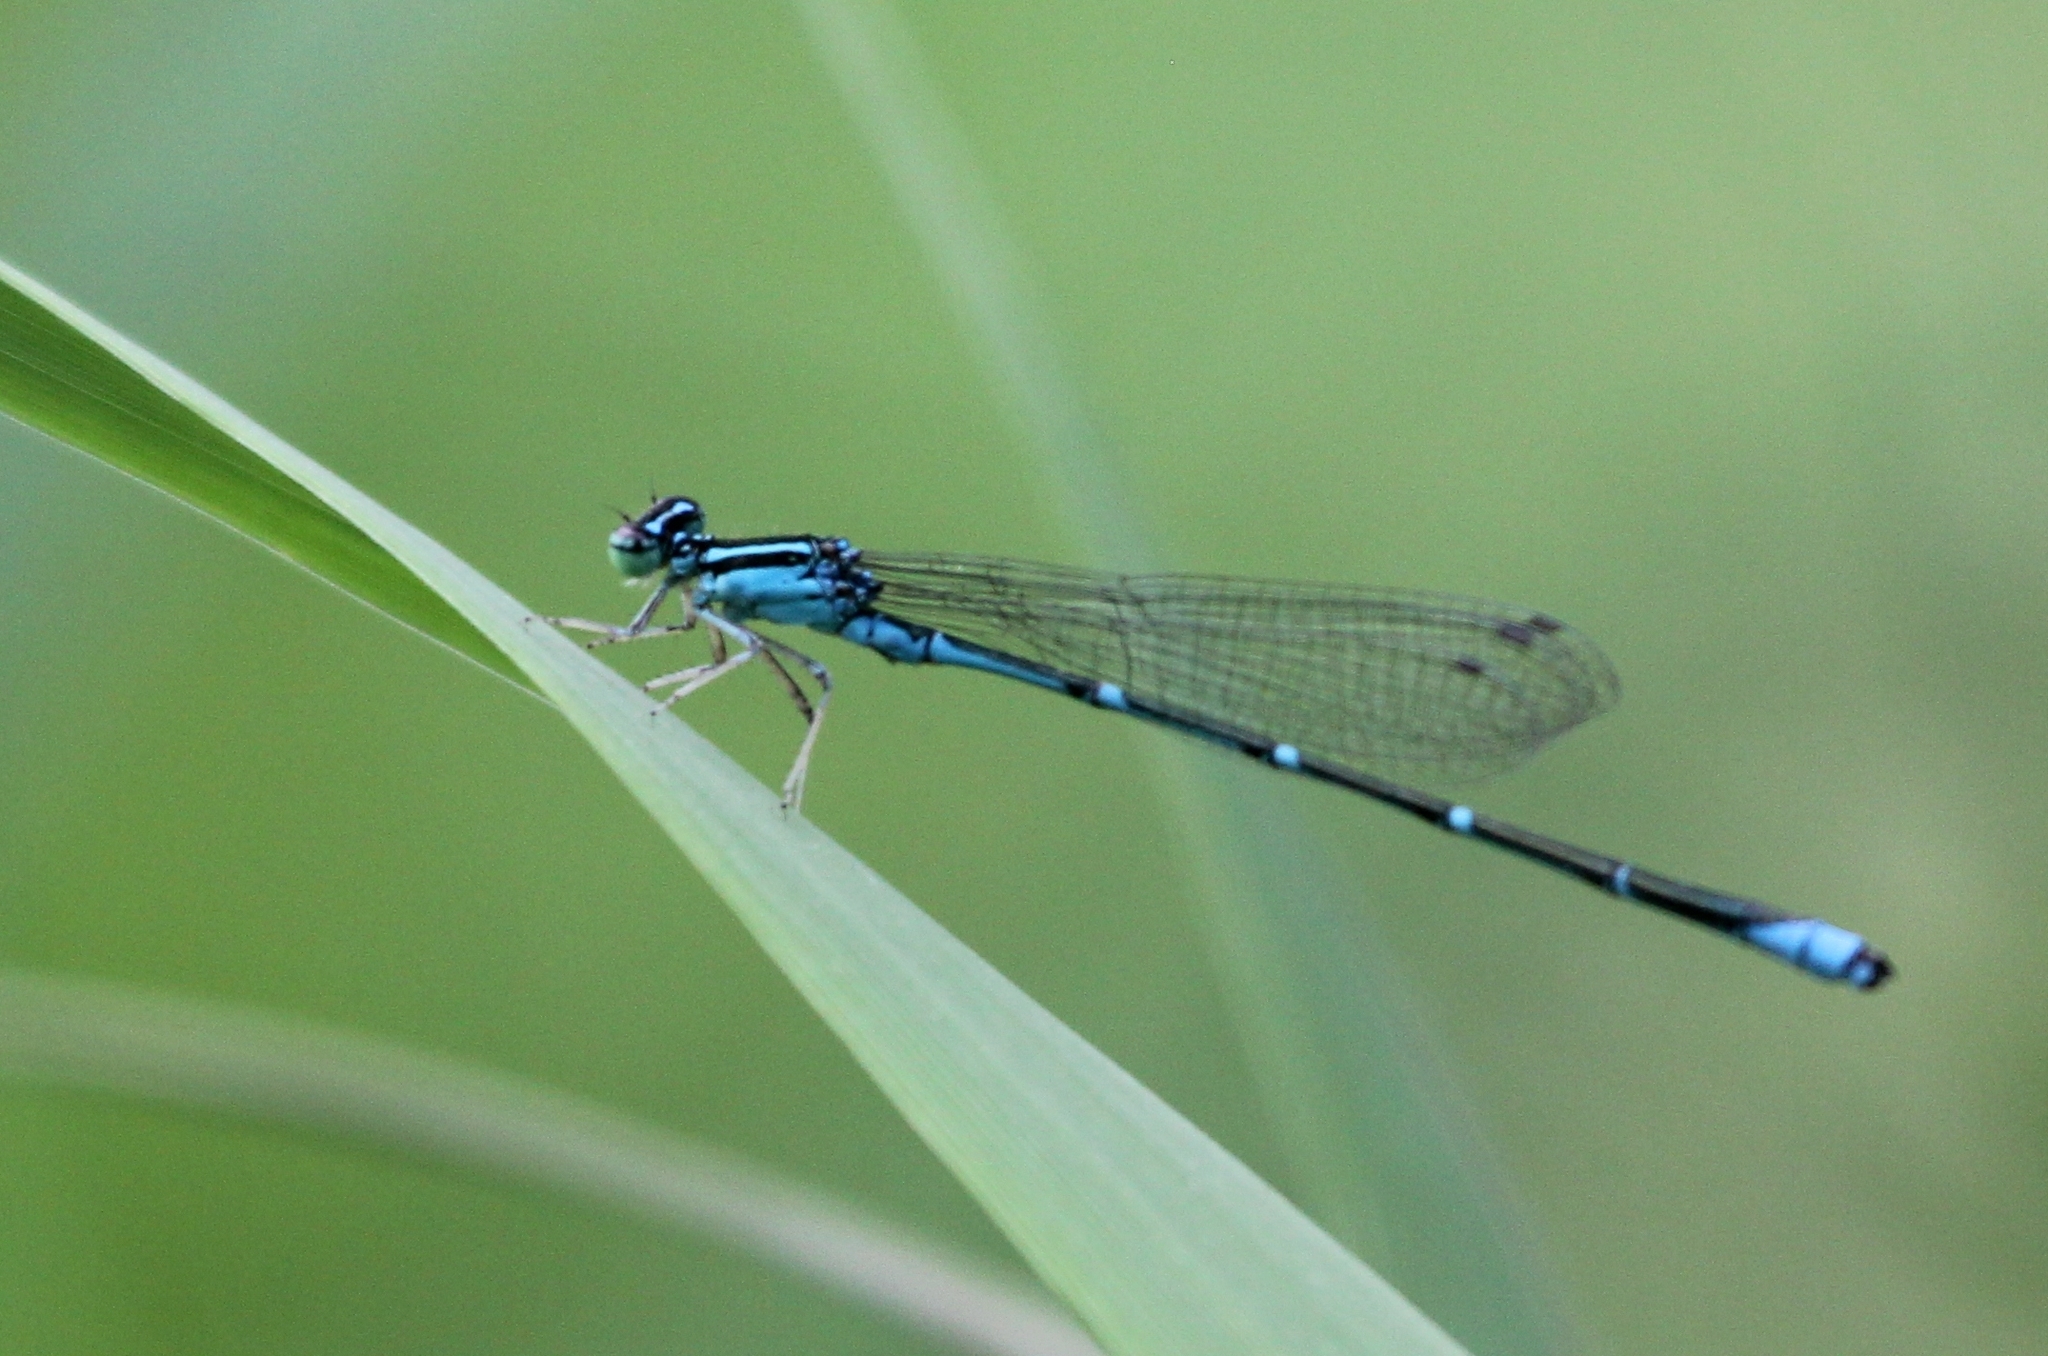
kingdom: Animalia
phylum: Arthropoda
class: Insecta
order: Odonata
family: Coenagrionidae
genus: Enallagma
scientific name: Enallagma exsulans
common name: Stream bluet
